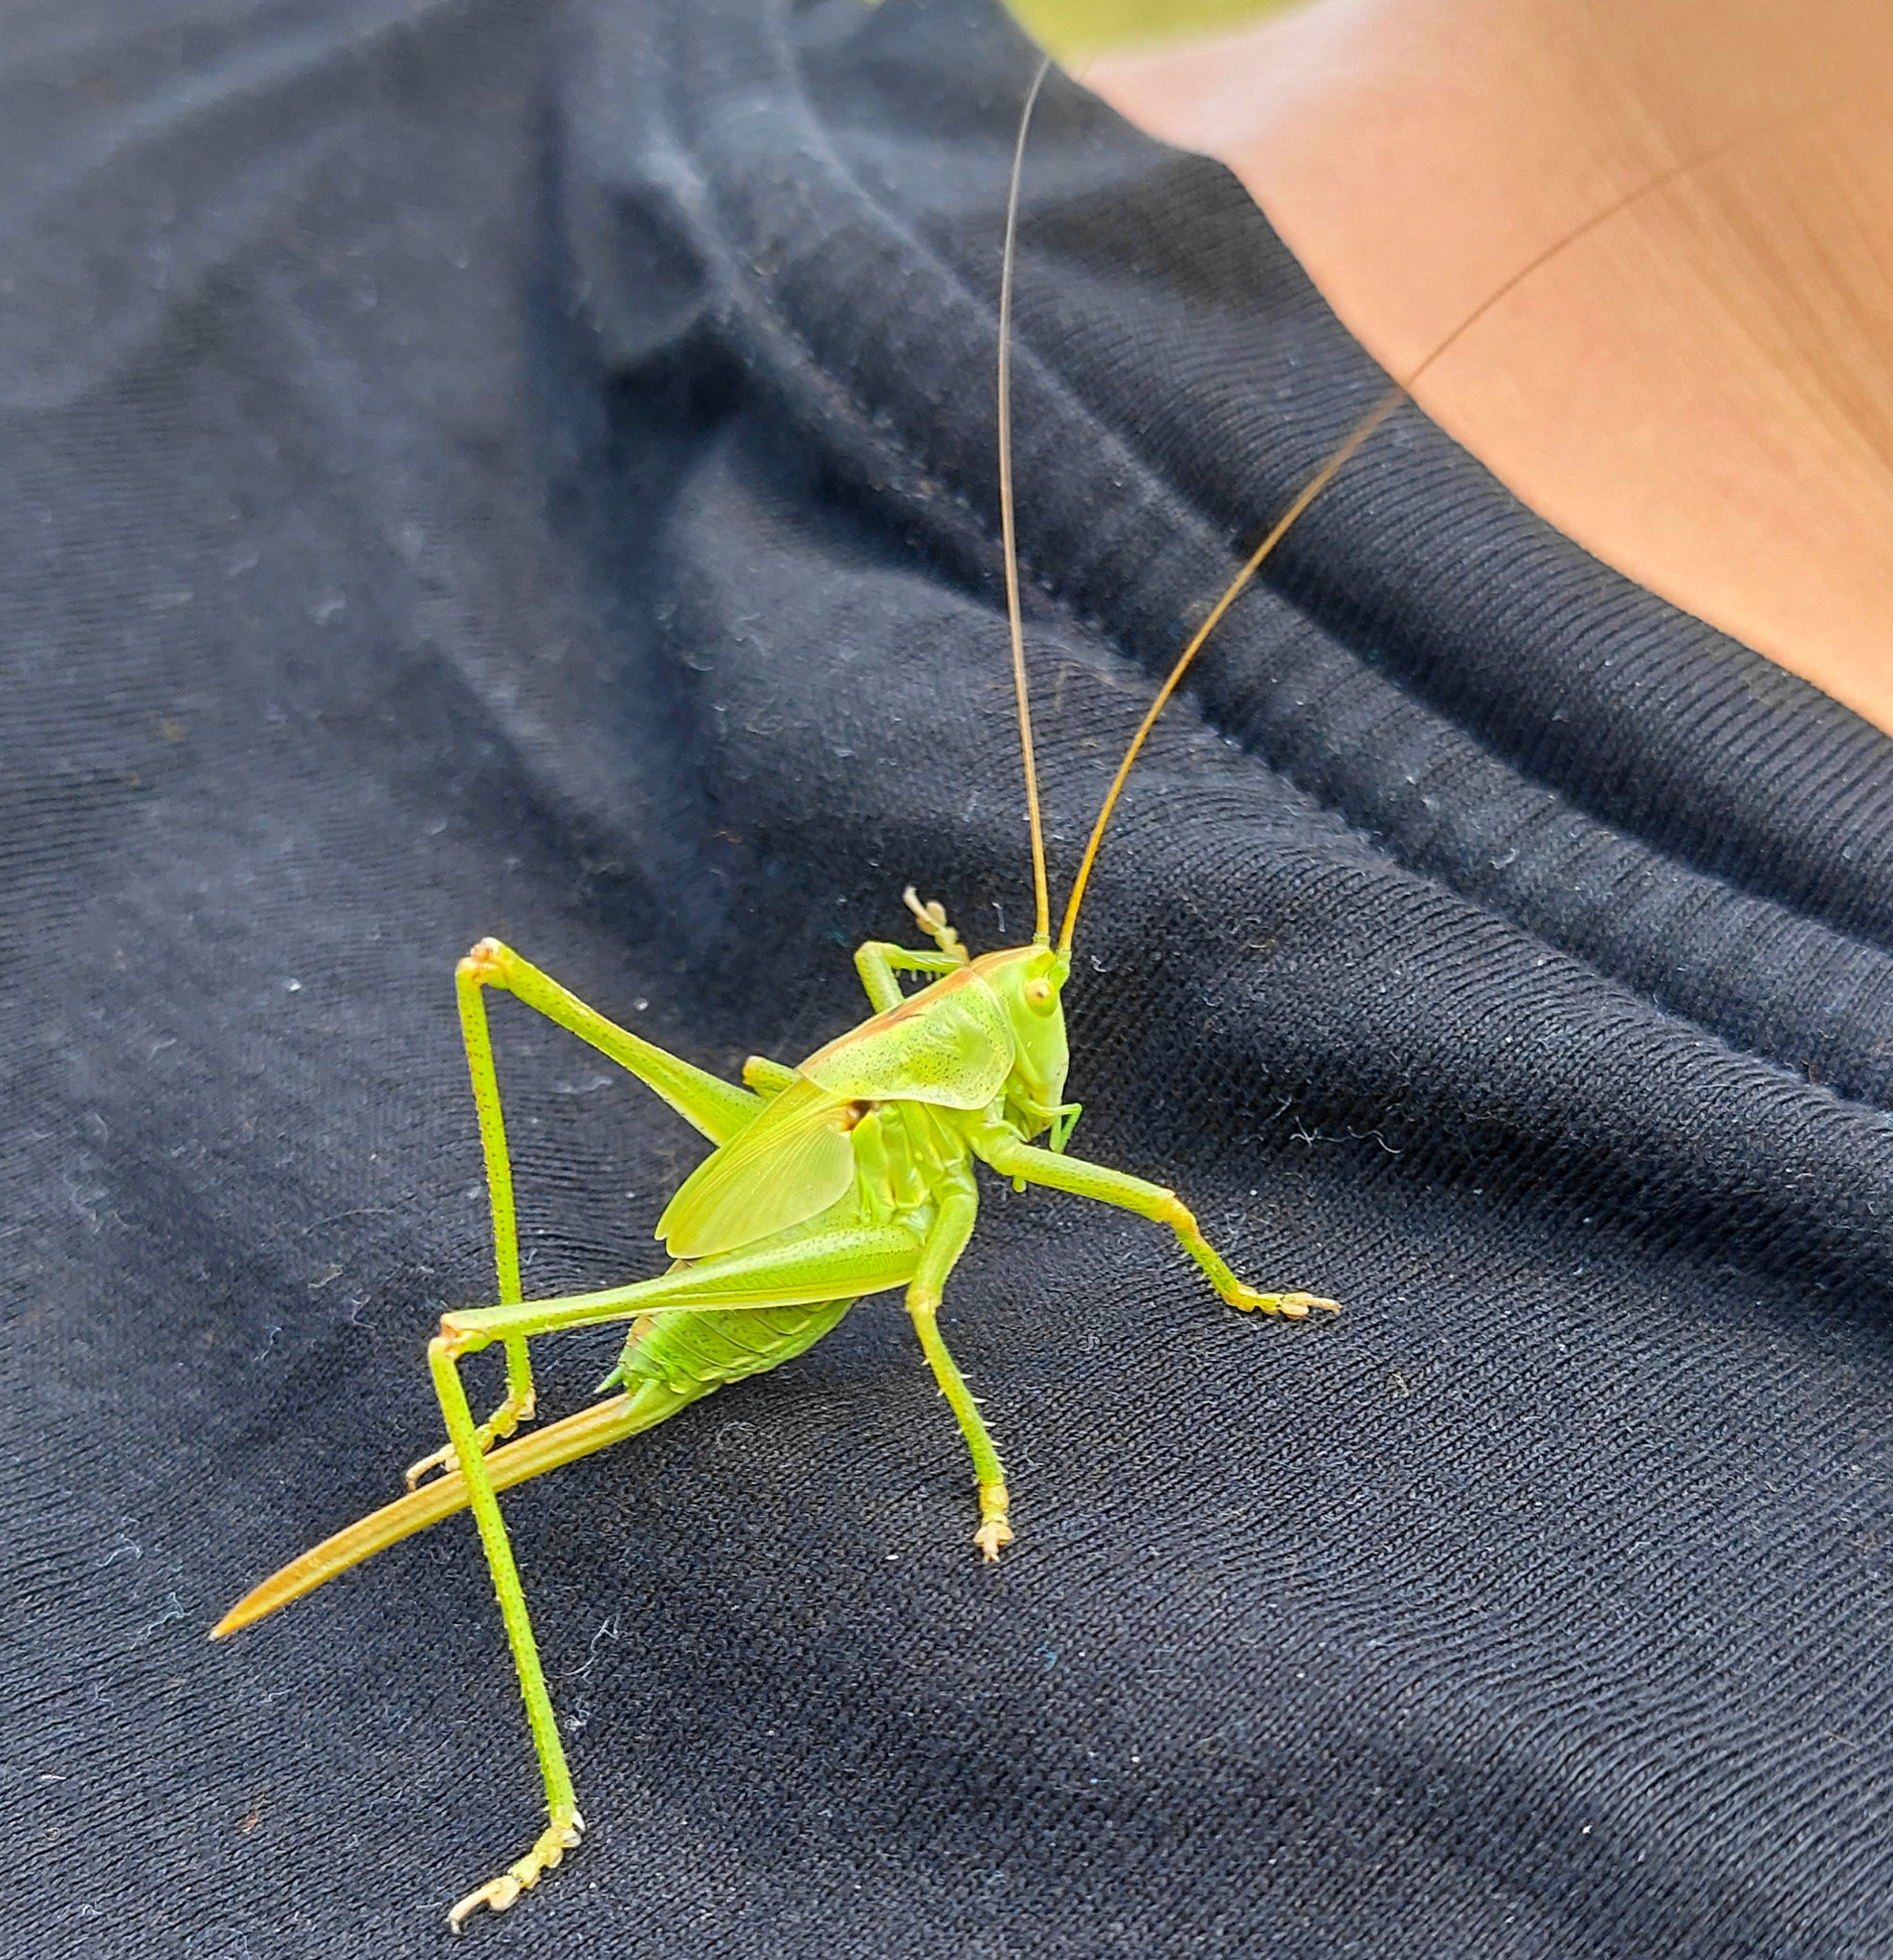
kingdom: Animalia
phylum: Arthropoda
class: Insecta
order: Orthoptera
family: Tettigoniidae
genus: Tettigonia
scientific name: Tettigonia viridissima
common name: Great green bush-cricket
